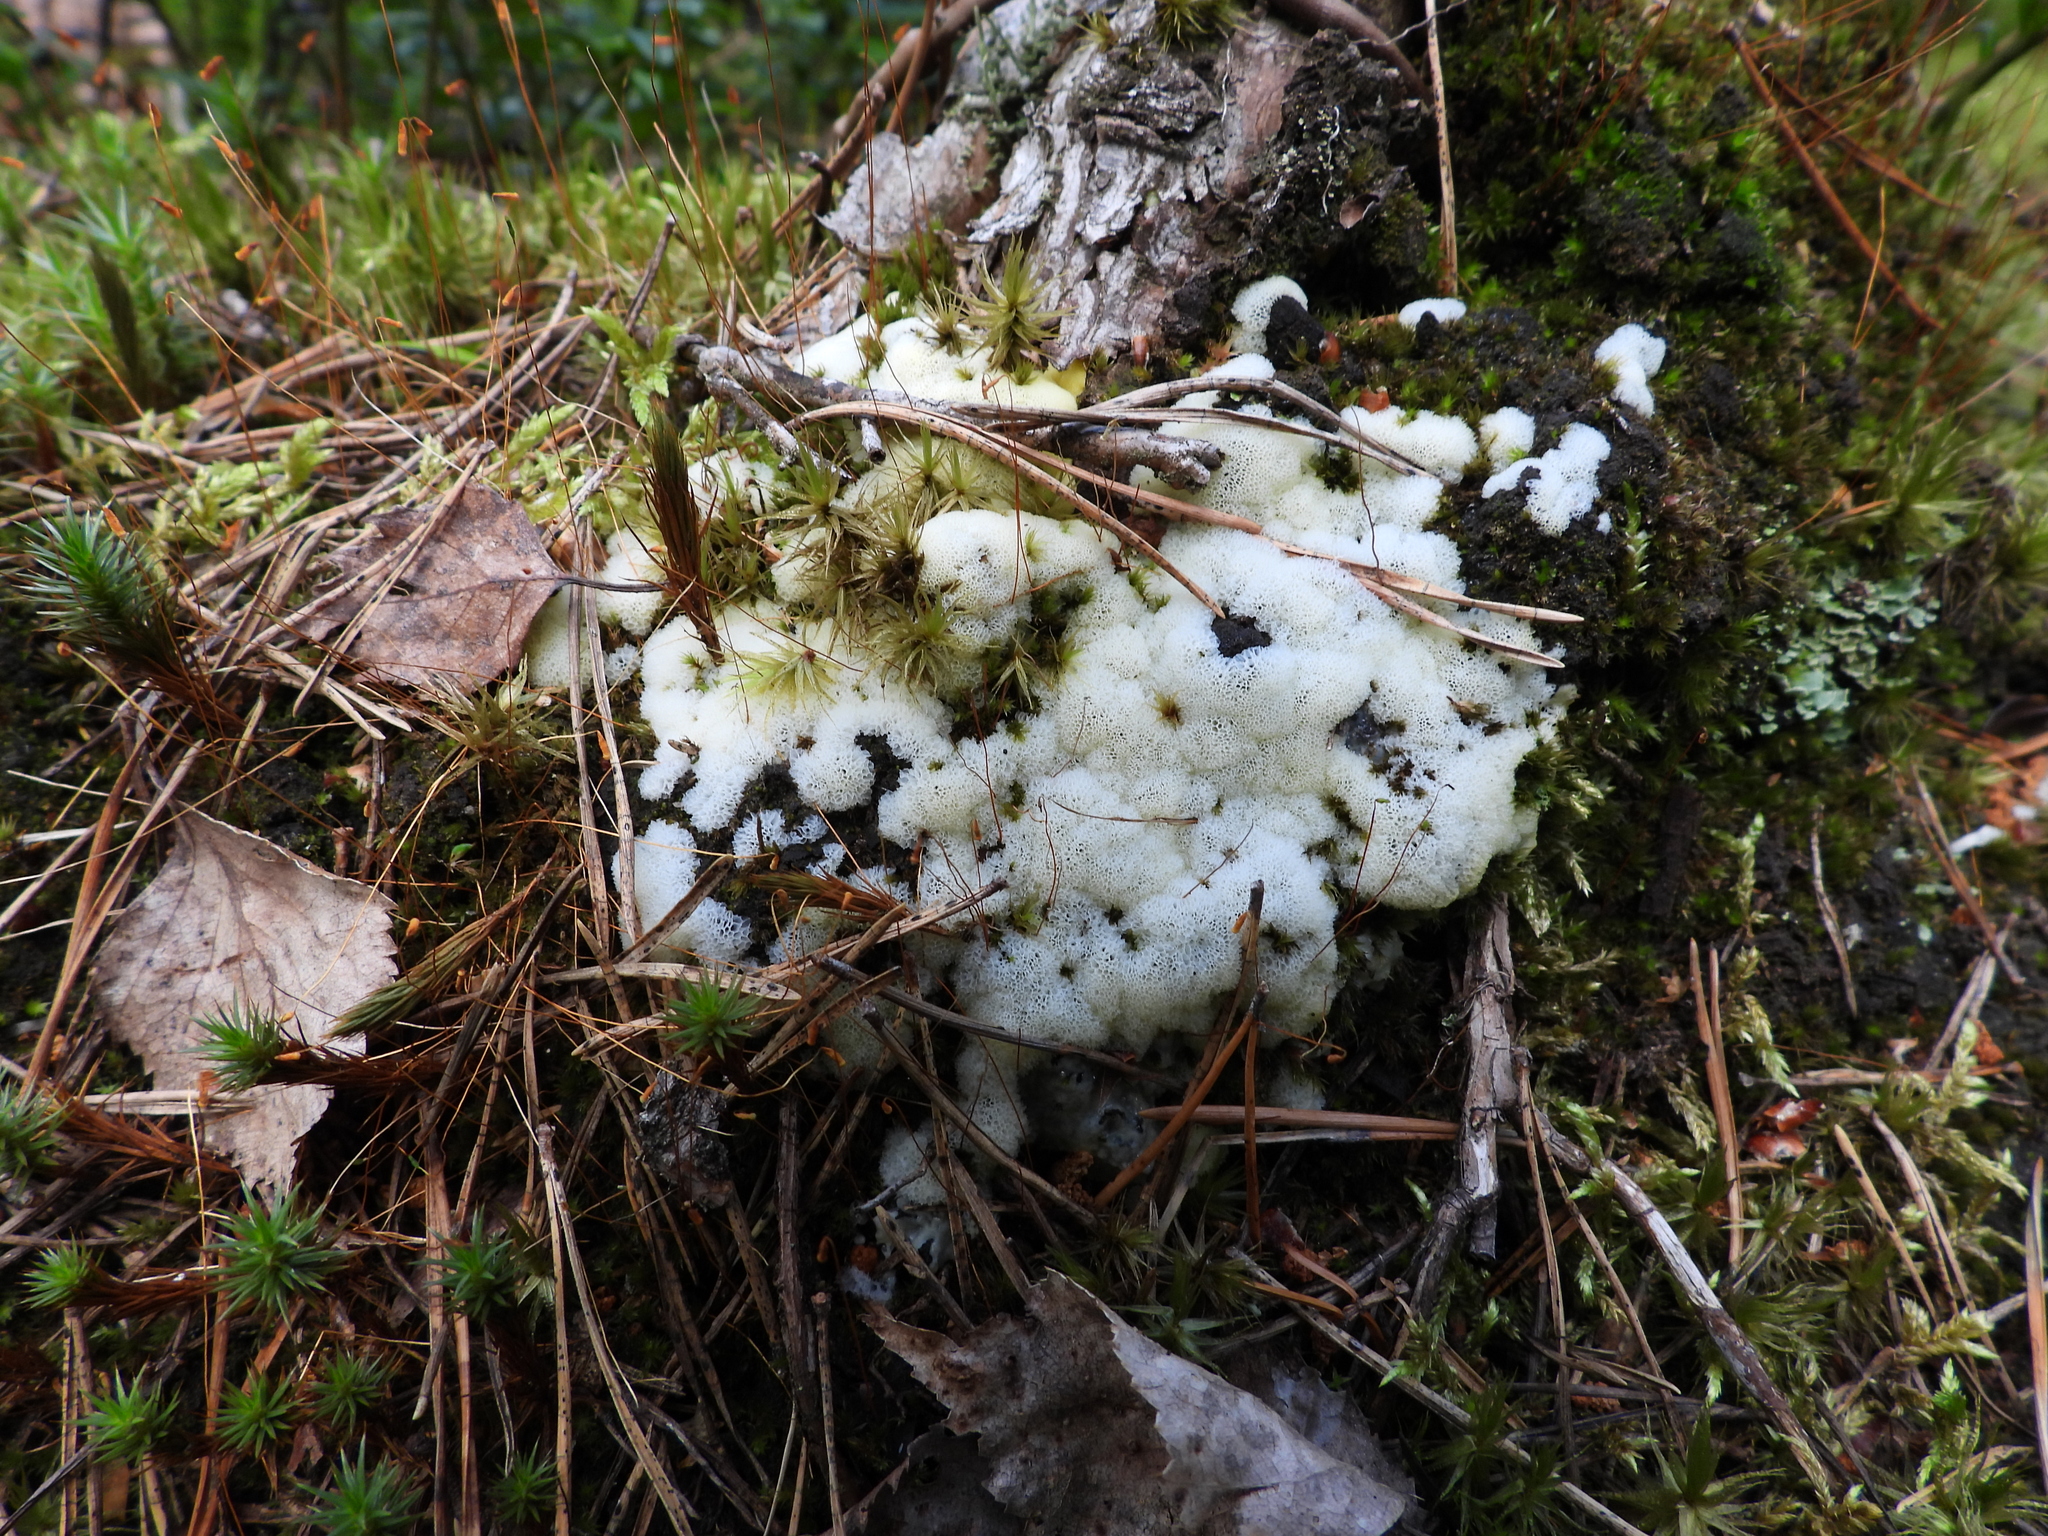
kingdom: Protozoa
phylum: Mycetozoa
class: Protosteliomycetes
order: Ceratiomyxales
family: Ceratiomyxaceae
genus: Ceratiomyxa
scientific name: Ceratiomyxa fruticulosa
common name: Honeycomb coral slime mold
